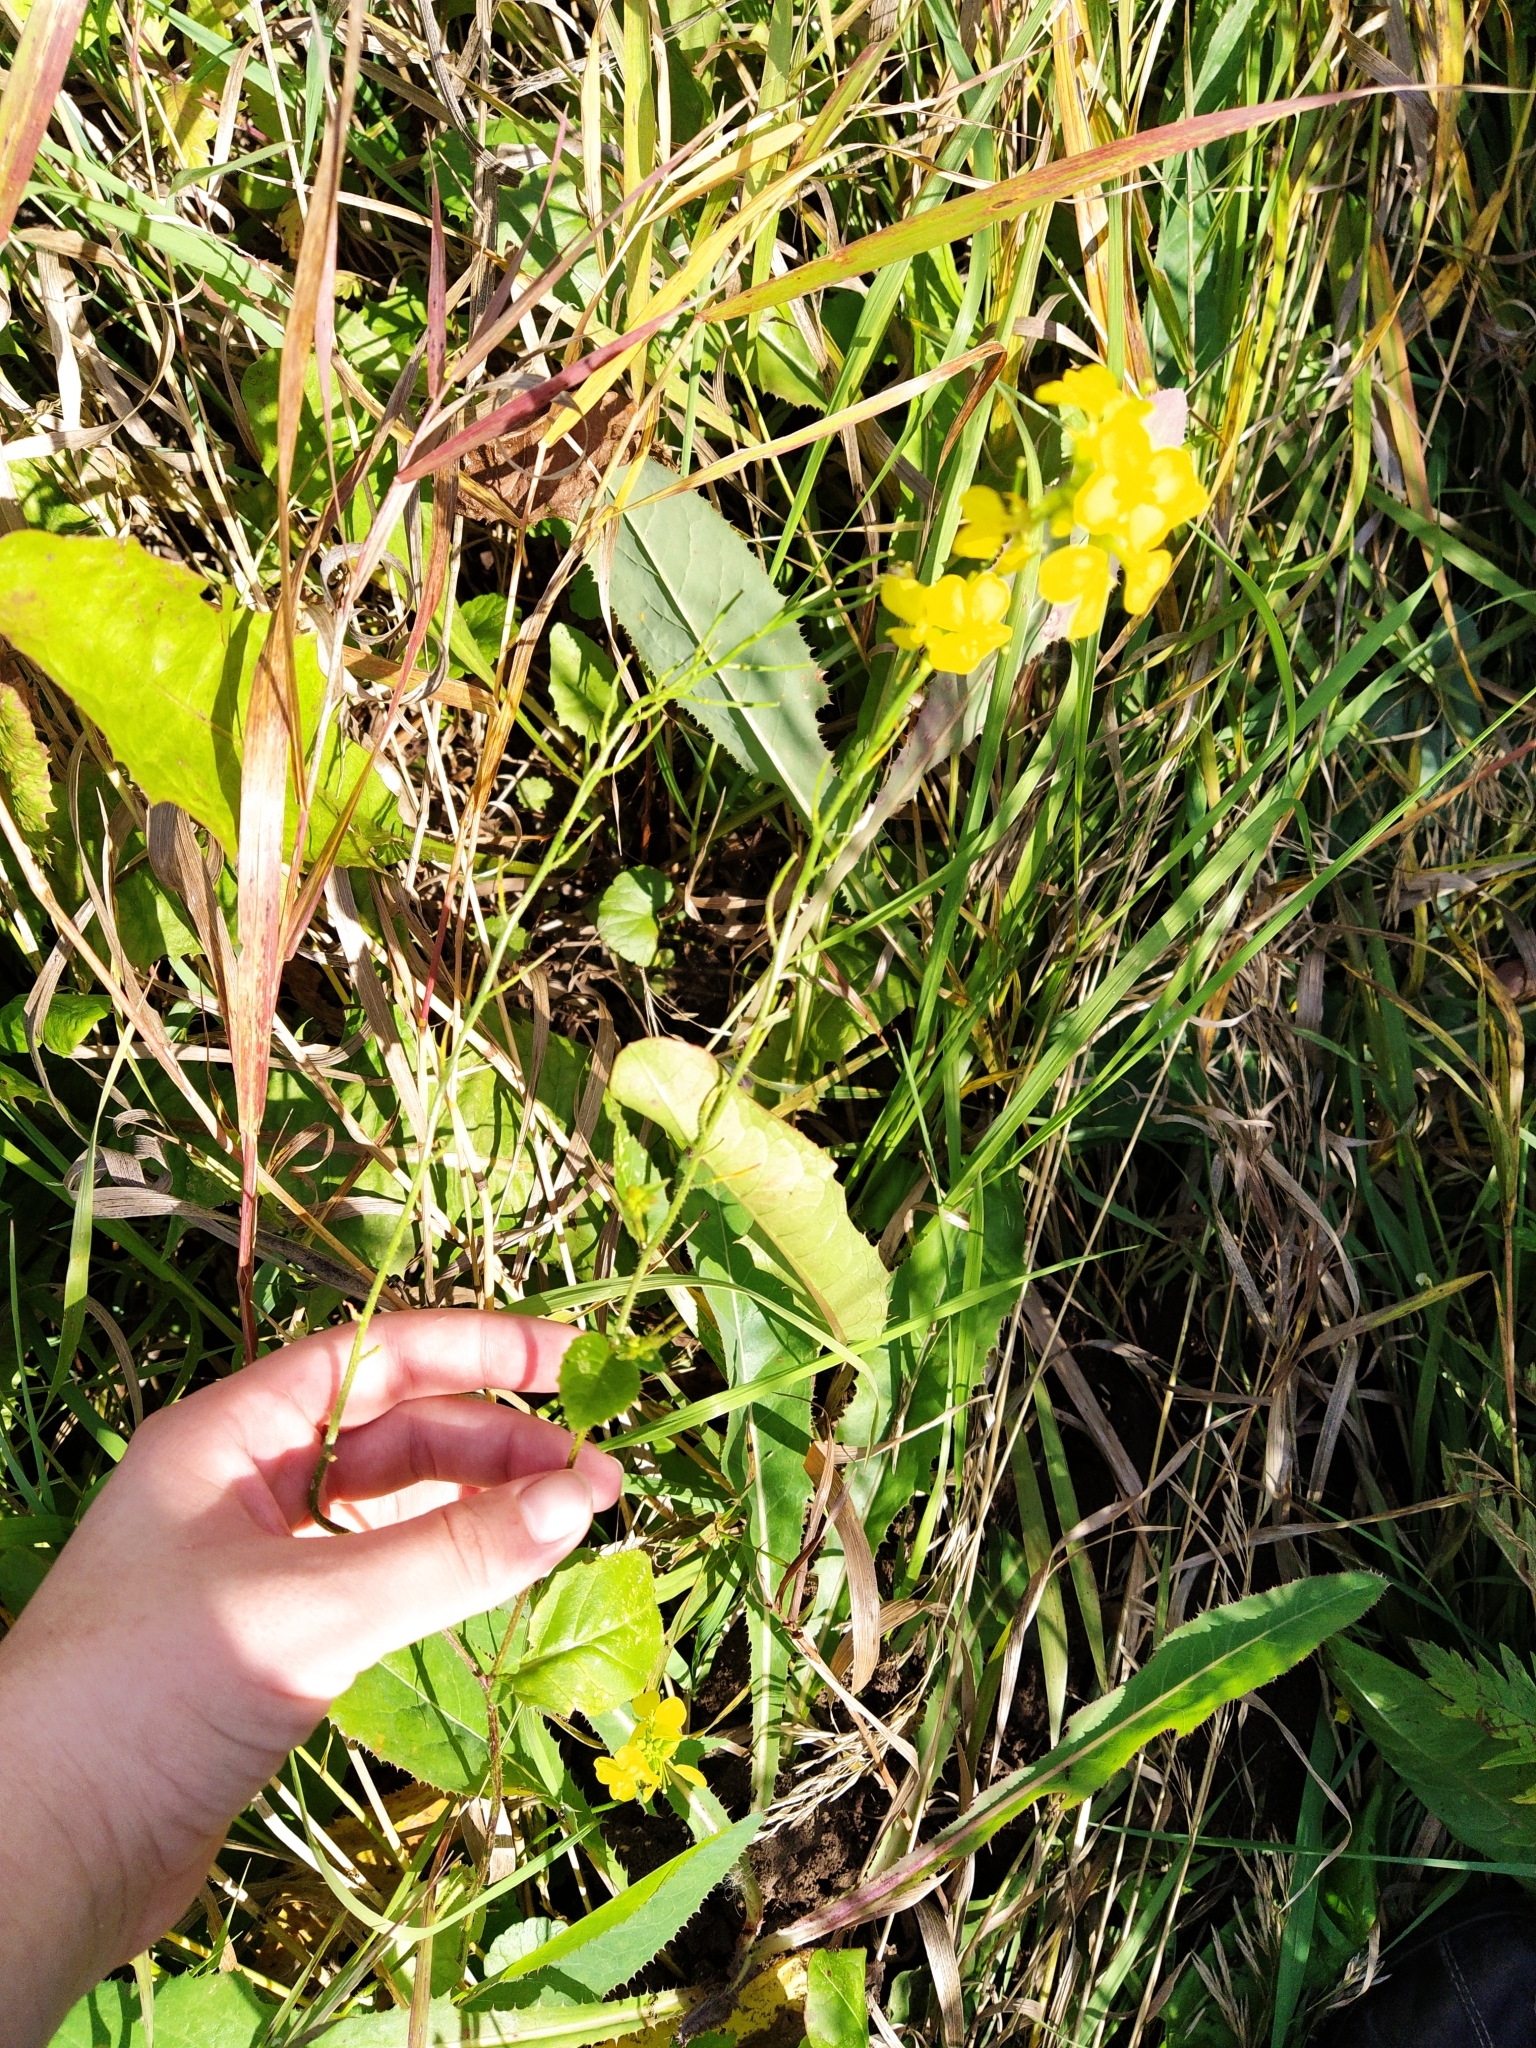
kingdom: Plantae
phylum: Tracheophyta
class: Magnoliopsida
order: Brassicales
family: Brassicaceae
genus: Sinapis
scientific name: Sinapis arvensis
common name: Charlock
